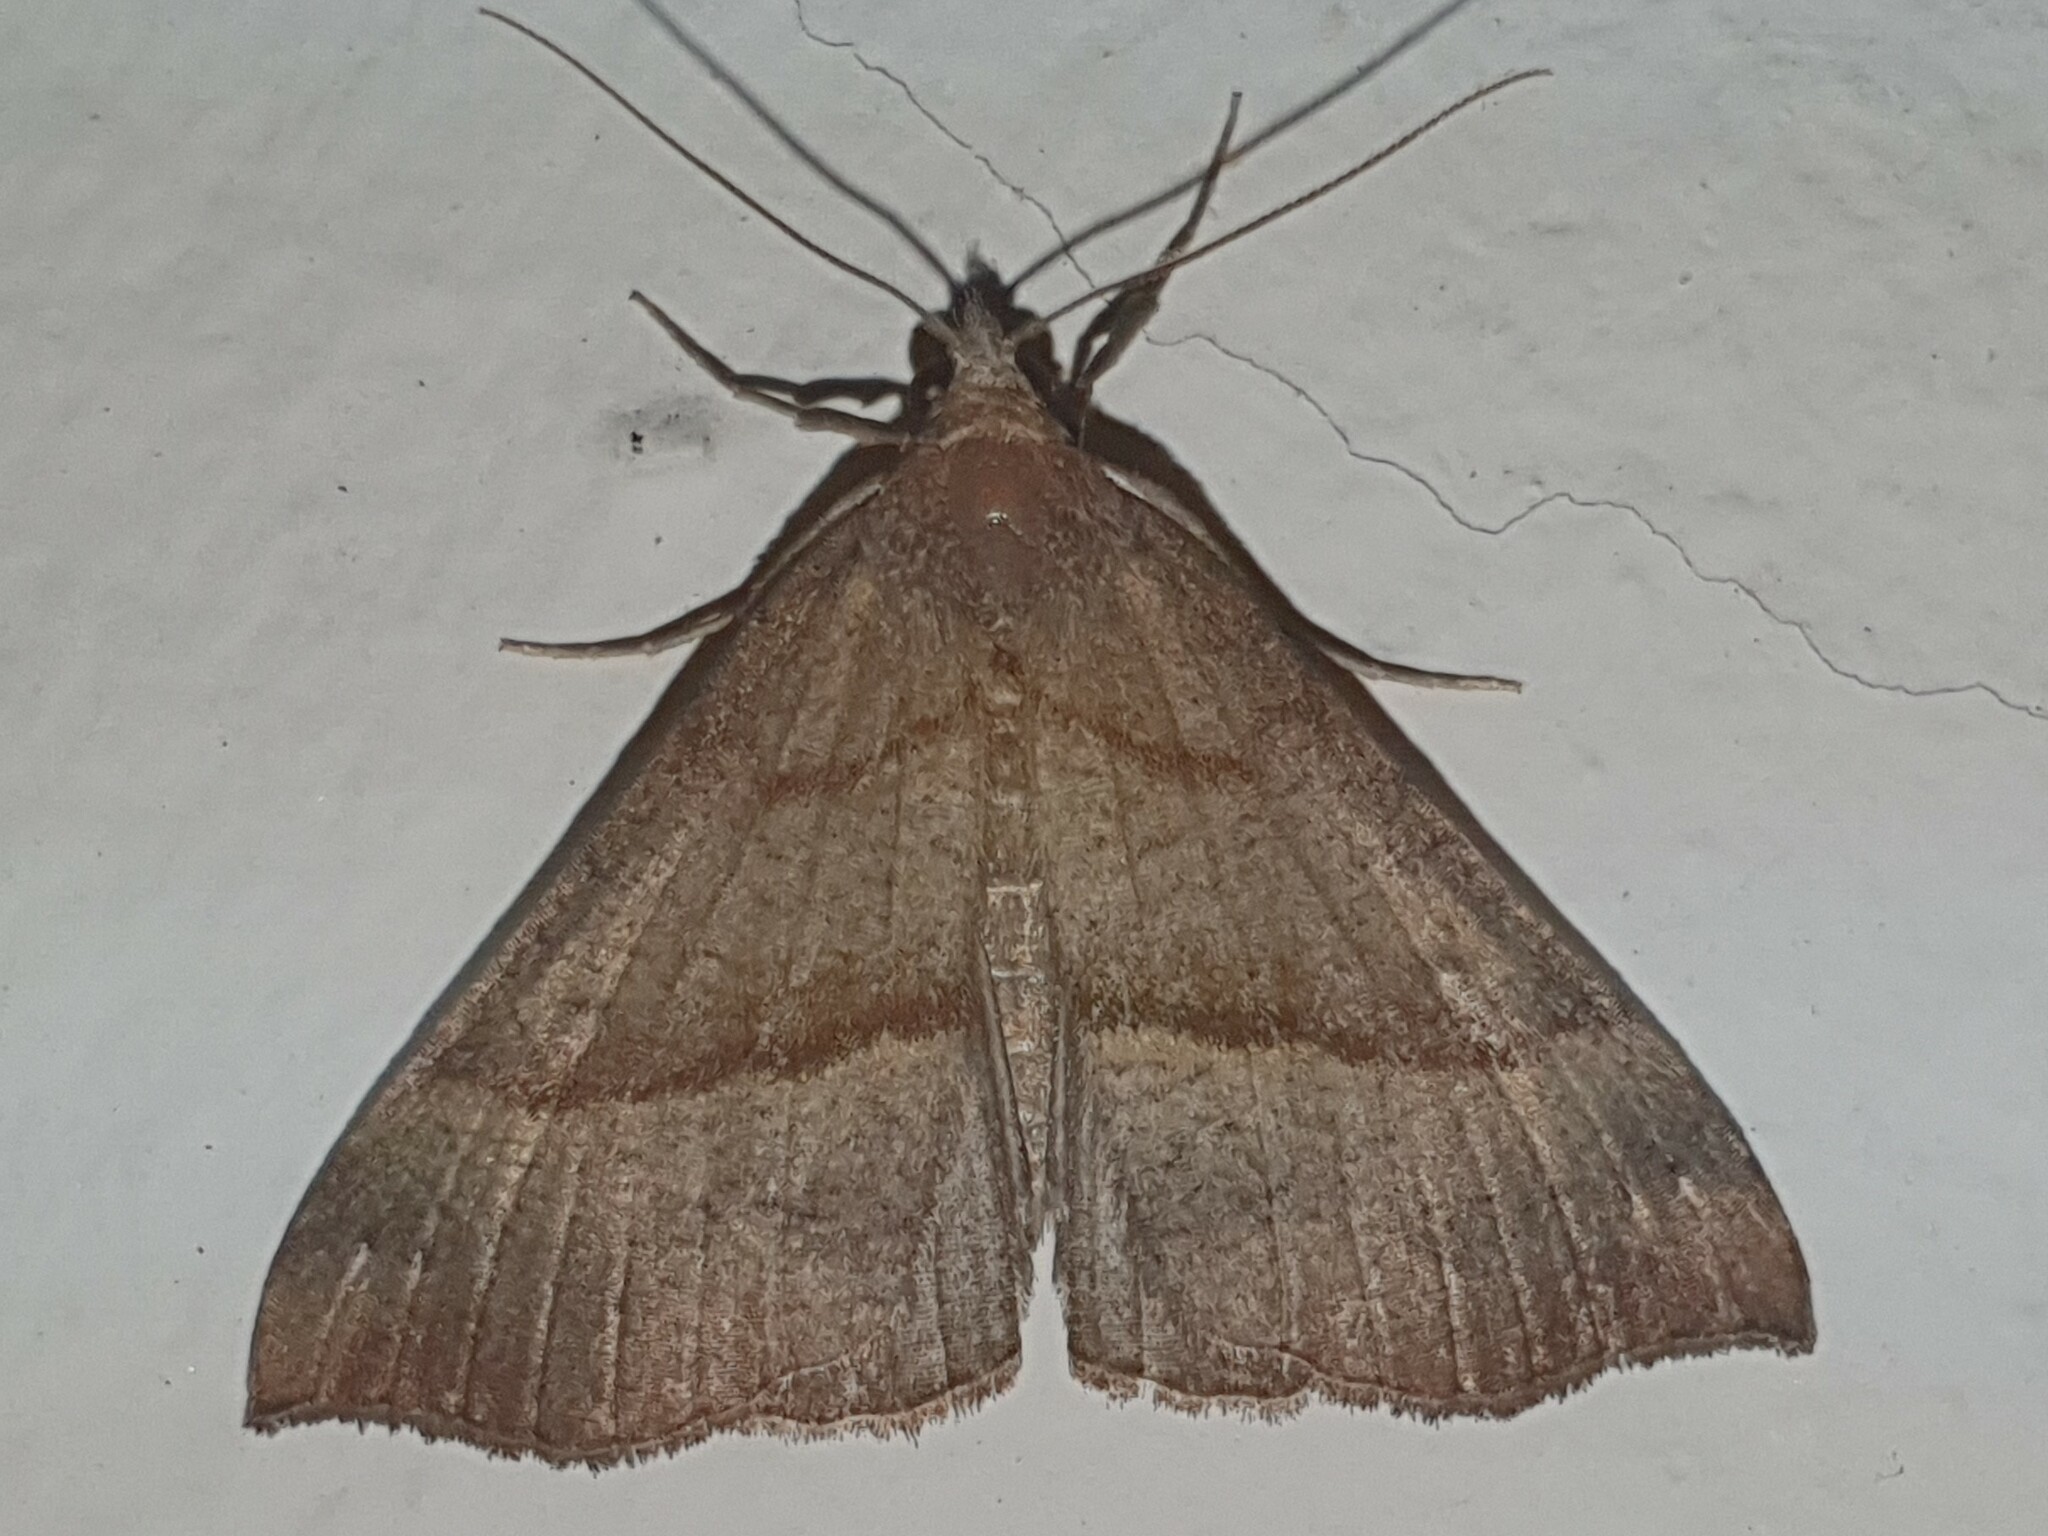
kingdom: Animalia
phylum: Arthropoda
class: Insecta
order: Lepidoptera
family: Erebidae
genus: Hypena
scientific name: Hypena proboscidalis
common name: Snout
